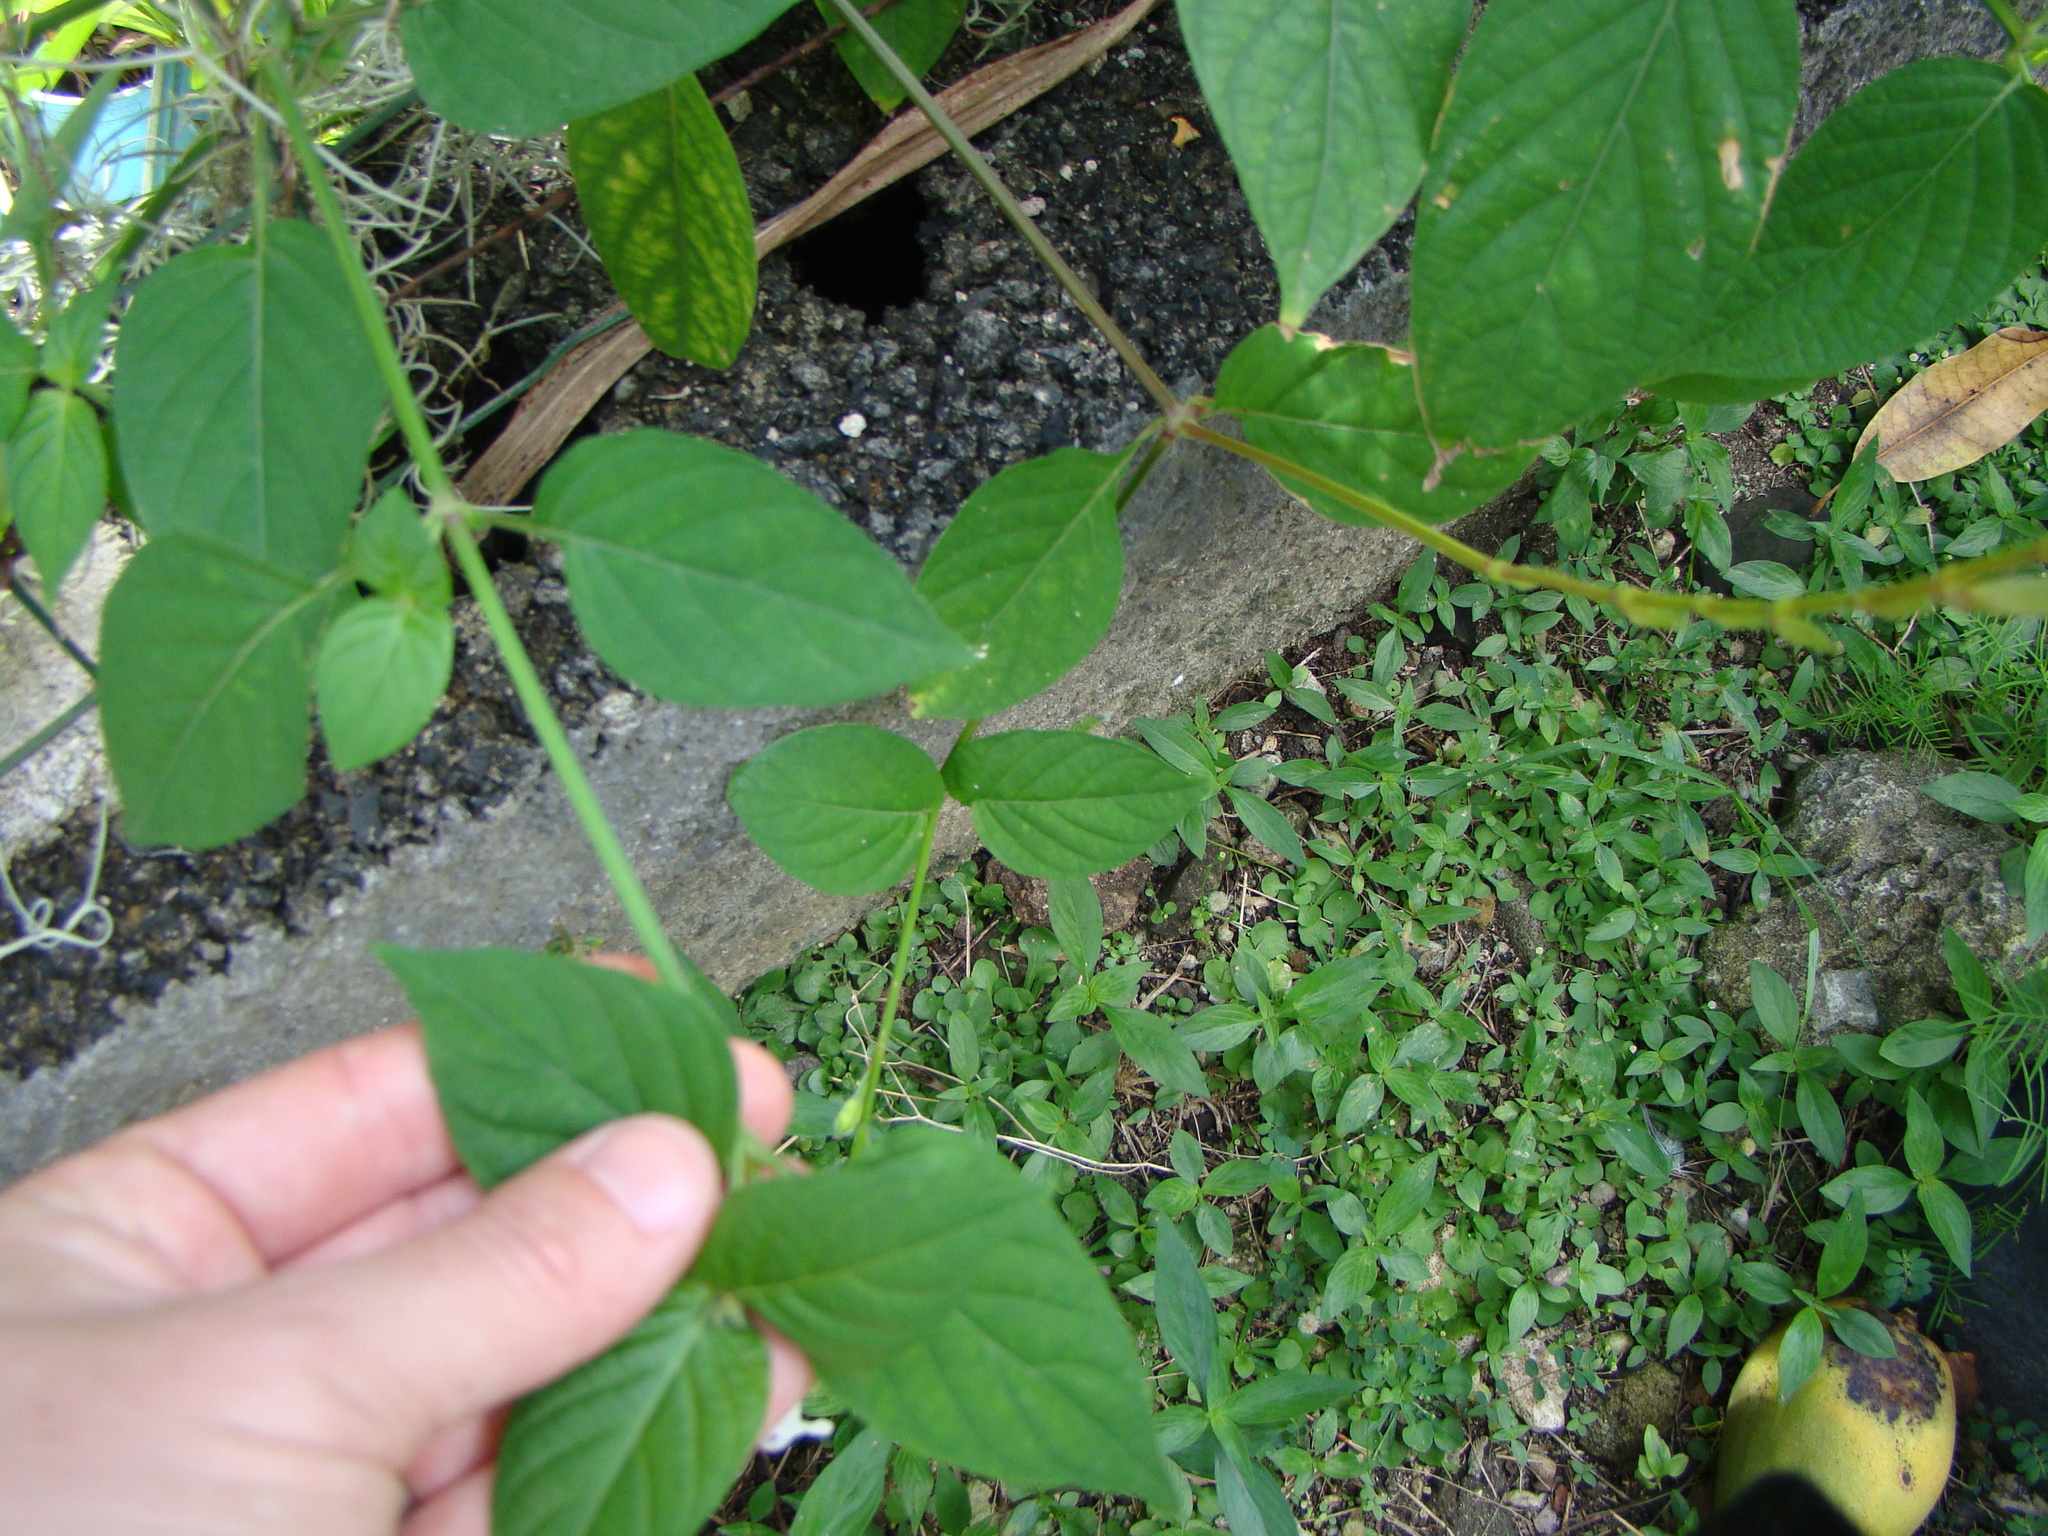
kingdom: Plantae
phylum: Tracheophyta
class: Magnoliopsida
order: Lamiales
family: Acanthaceae
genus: Asystasia
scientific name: Asystasia intrusa
